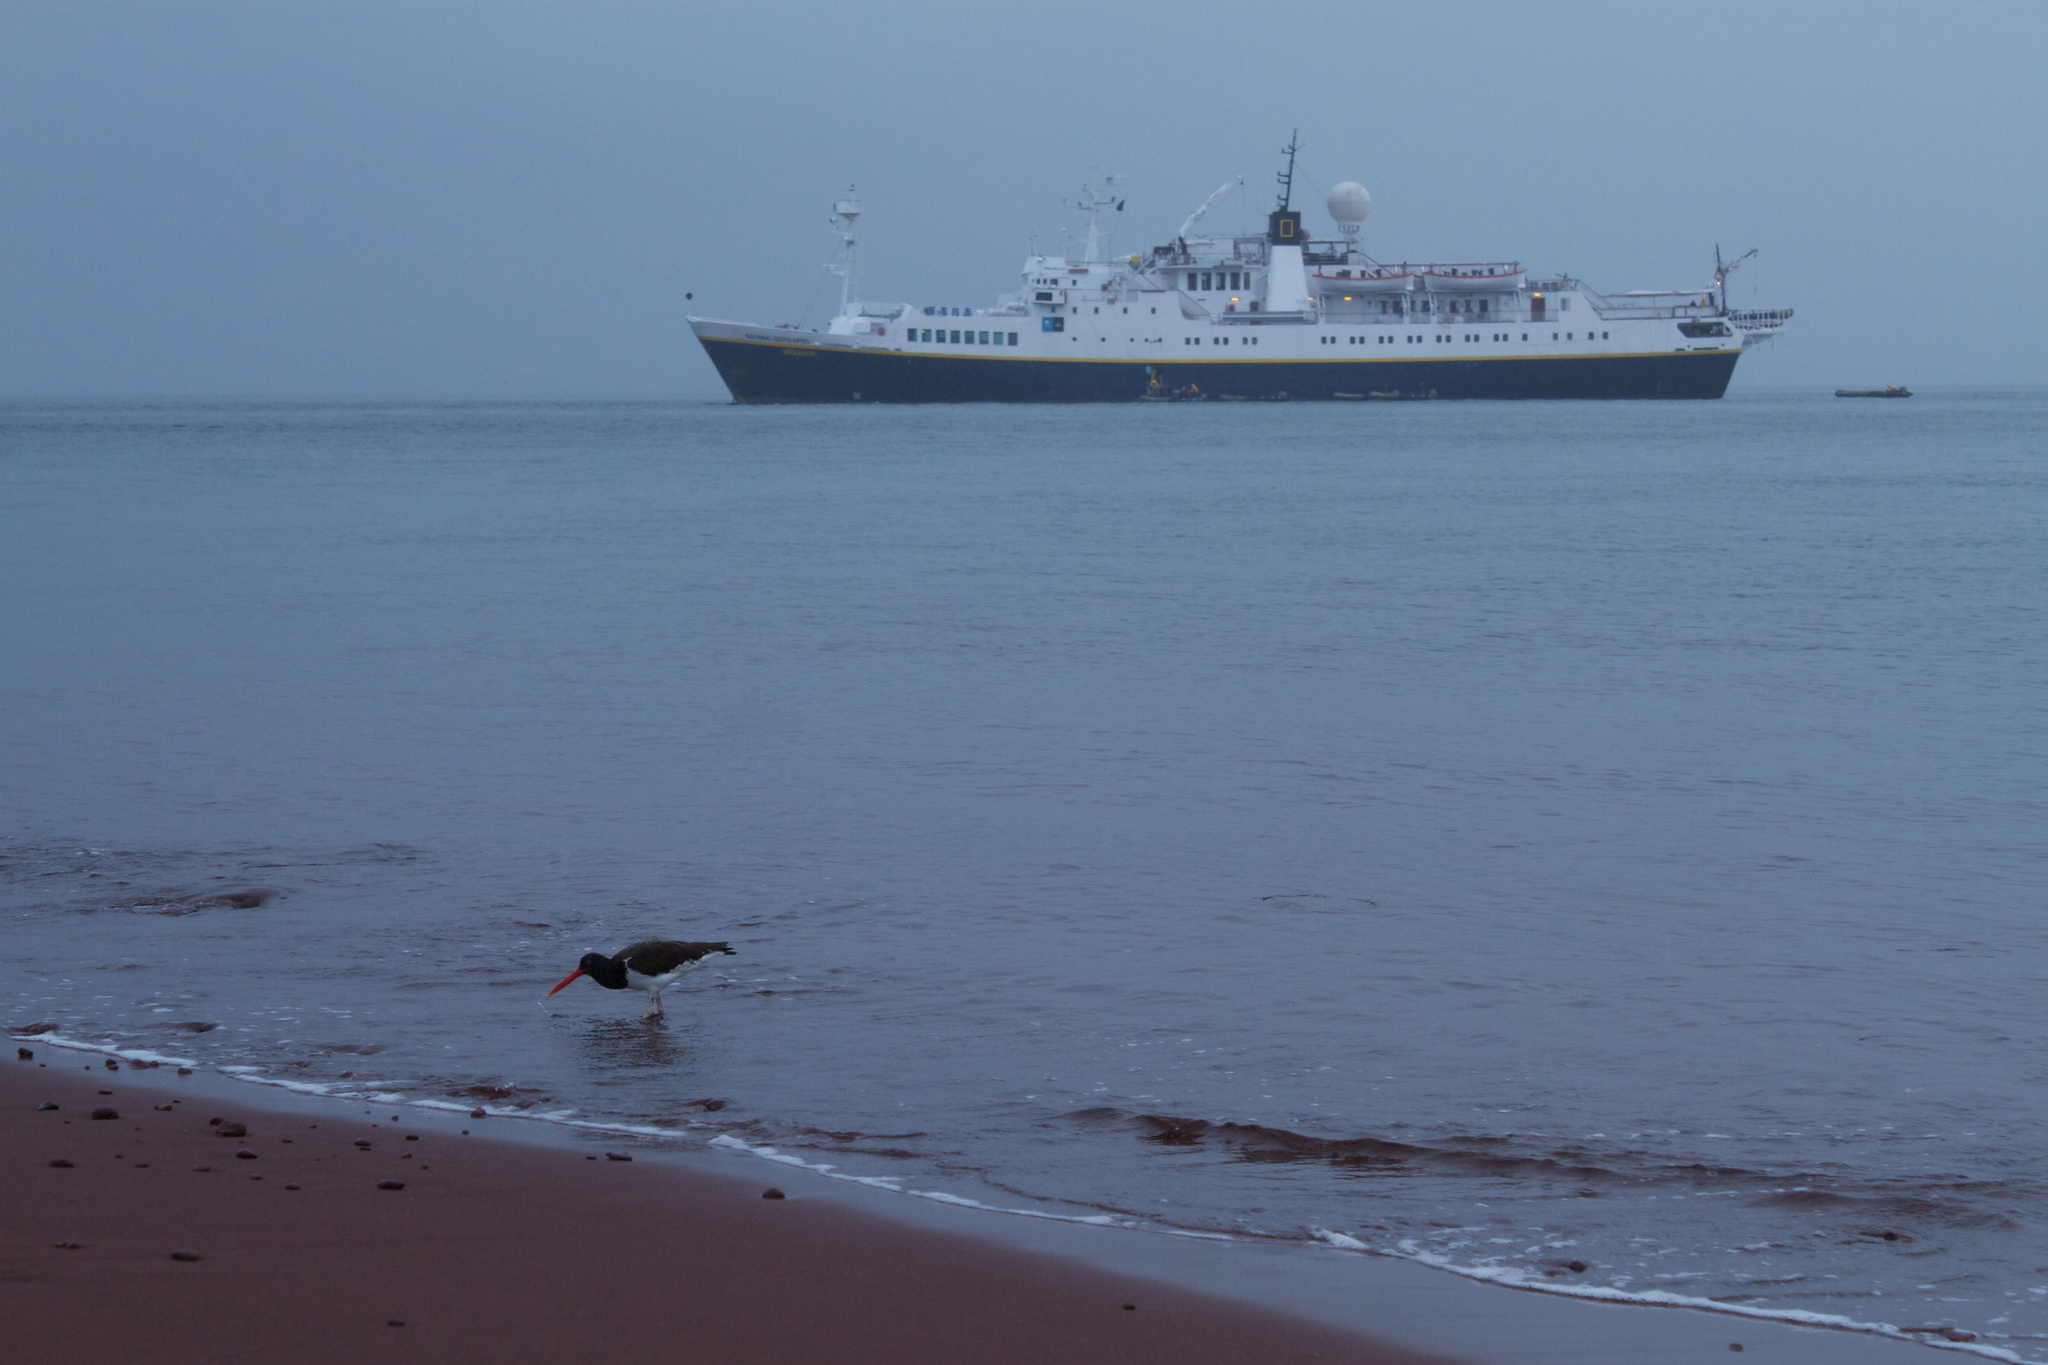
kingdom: Animalia
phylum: Chordata
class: Aves
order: Charadriiformes
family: Haematopodidae
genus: Haematopus
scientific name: Haematopus palliatus
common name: American oystercatcher
